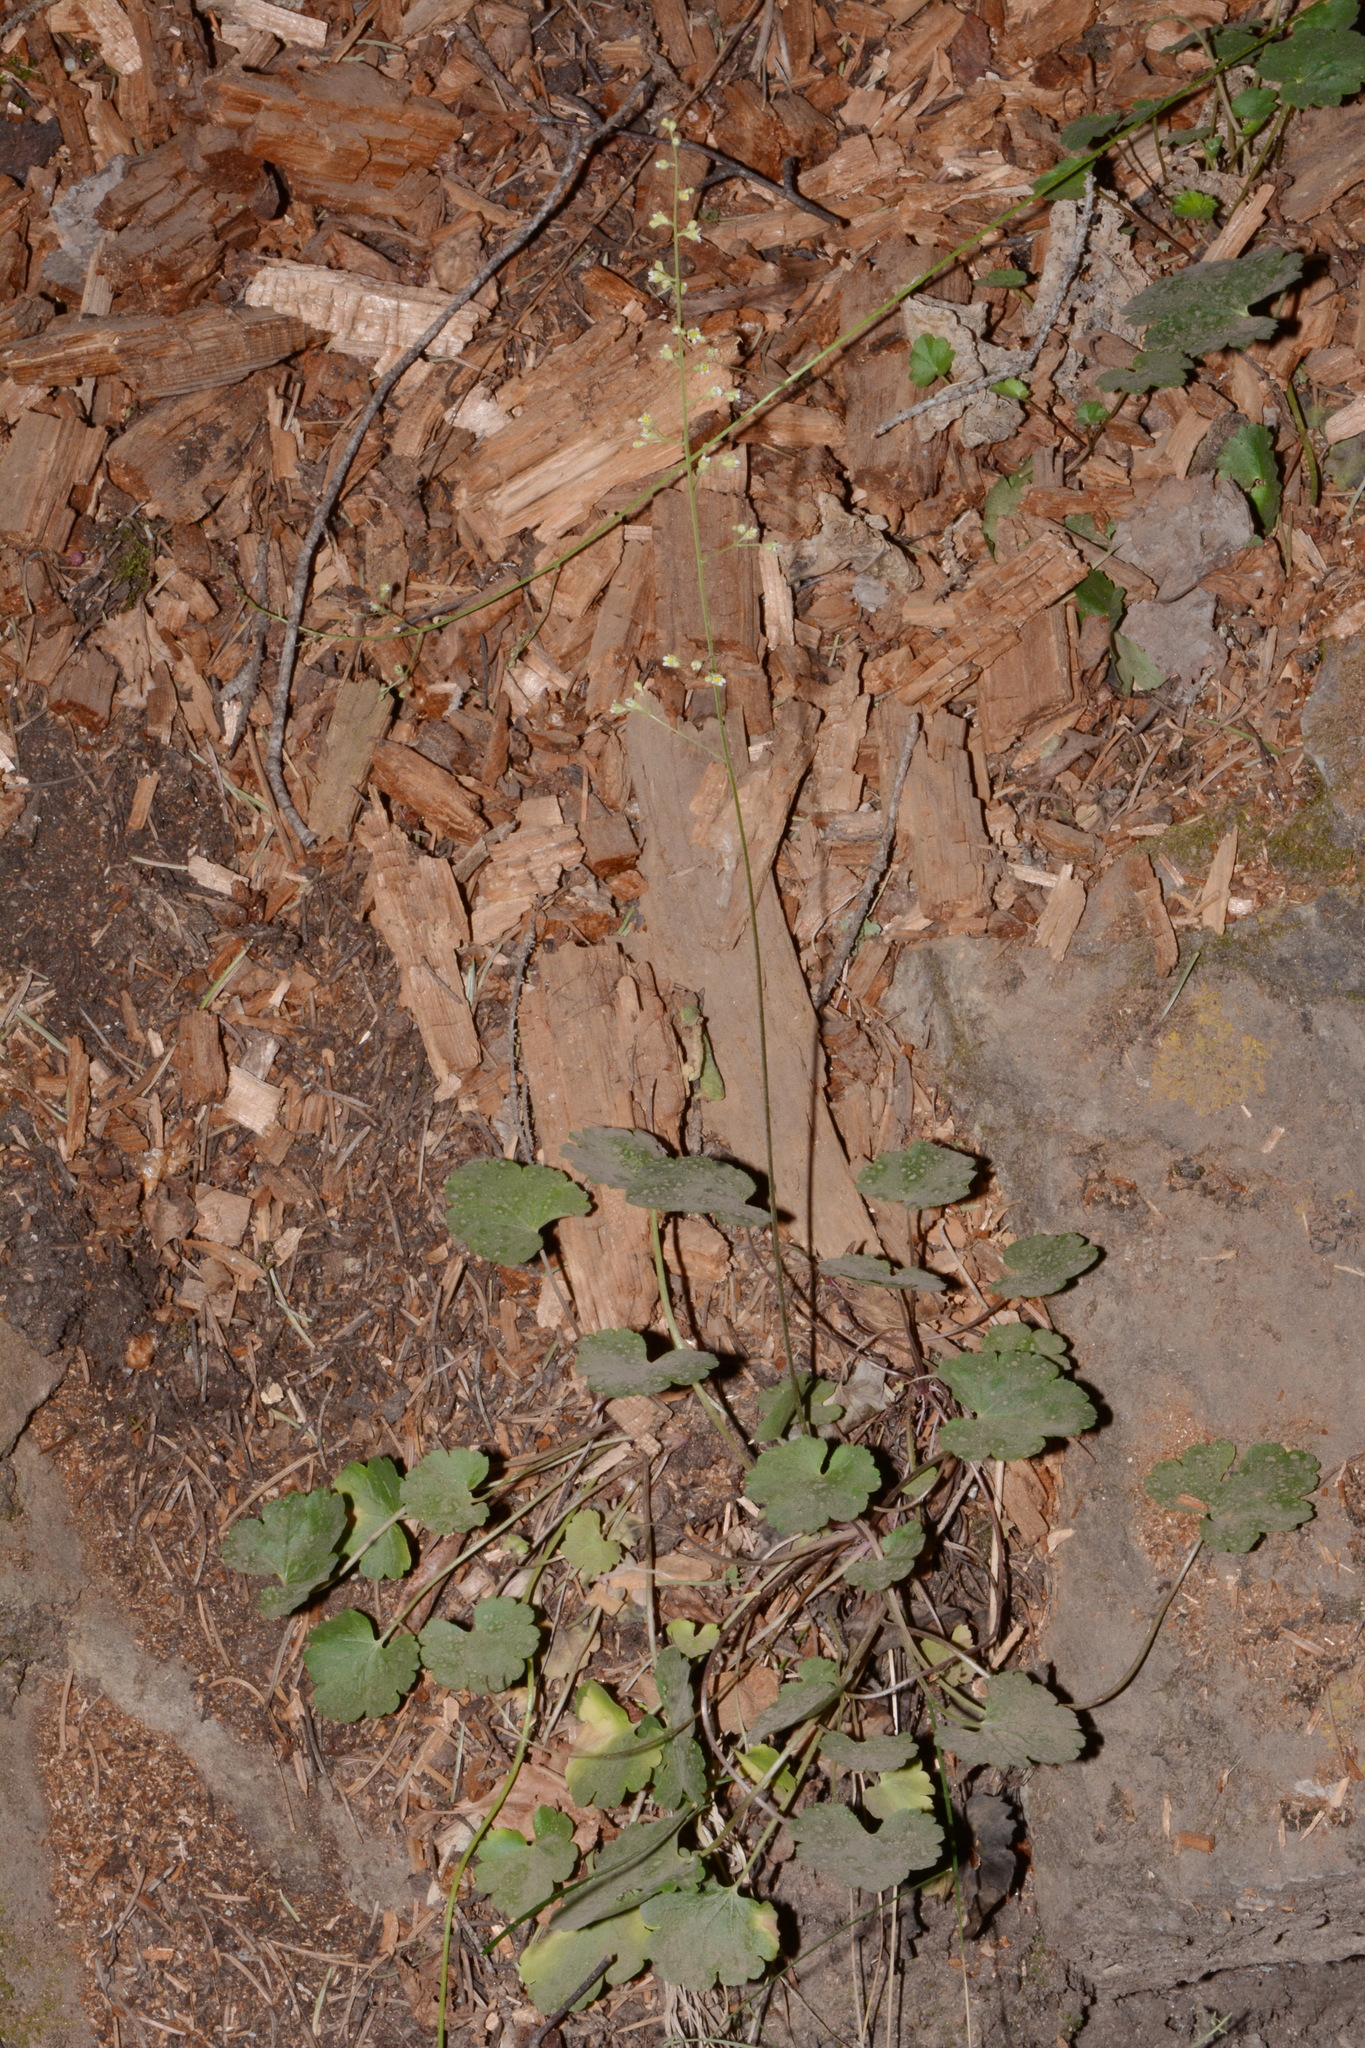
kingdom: Plantae
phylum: Tracheophyta
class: Magnoliopsida
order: Saxifragales
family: Saxifragaceae
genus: Heuchera
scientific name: Heuchera parvifolia
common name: Common alumroot
